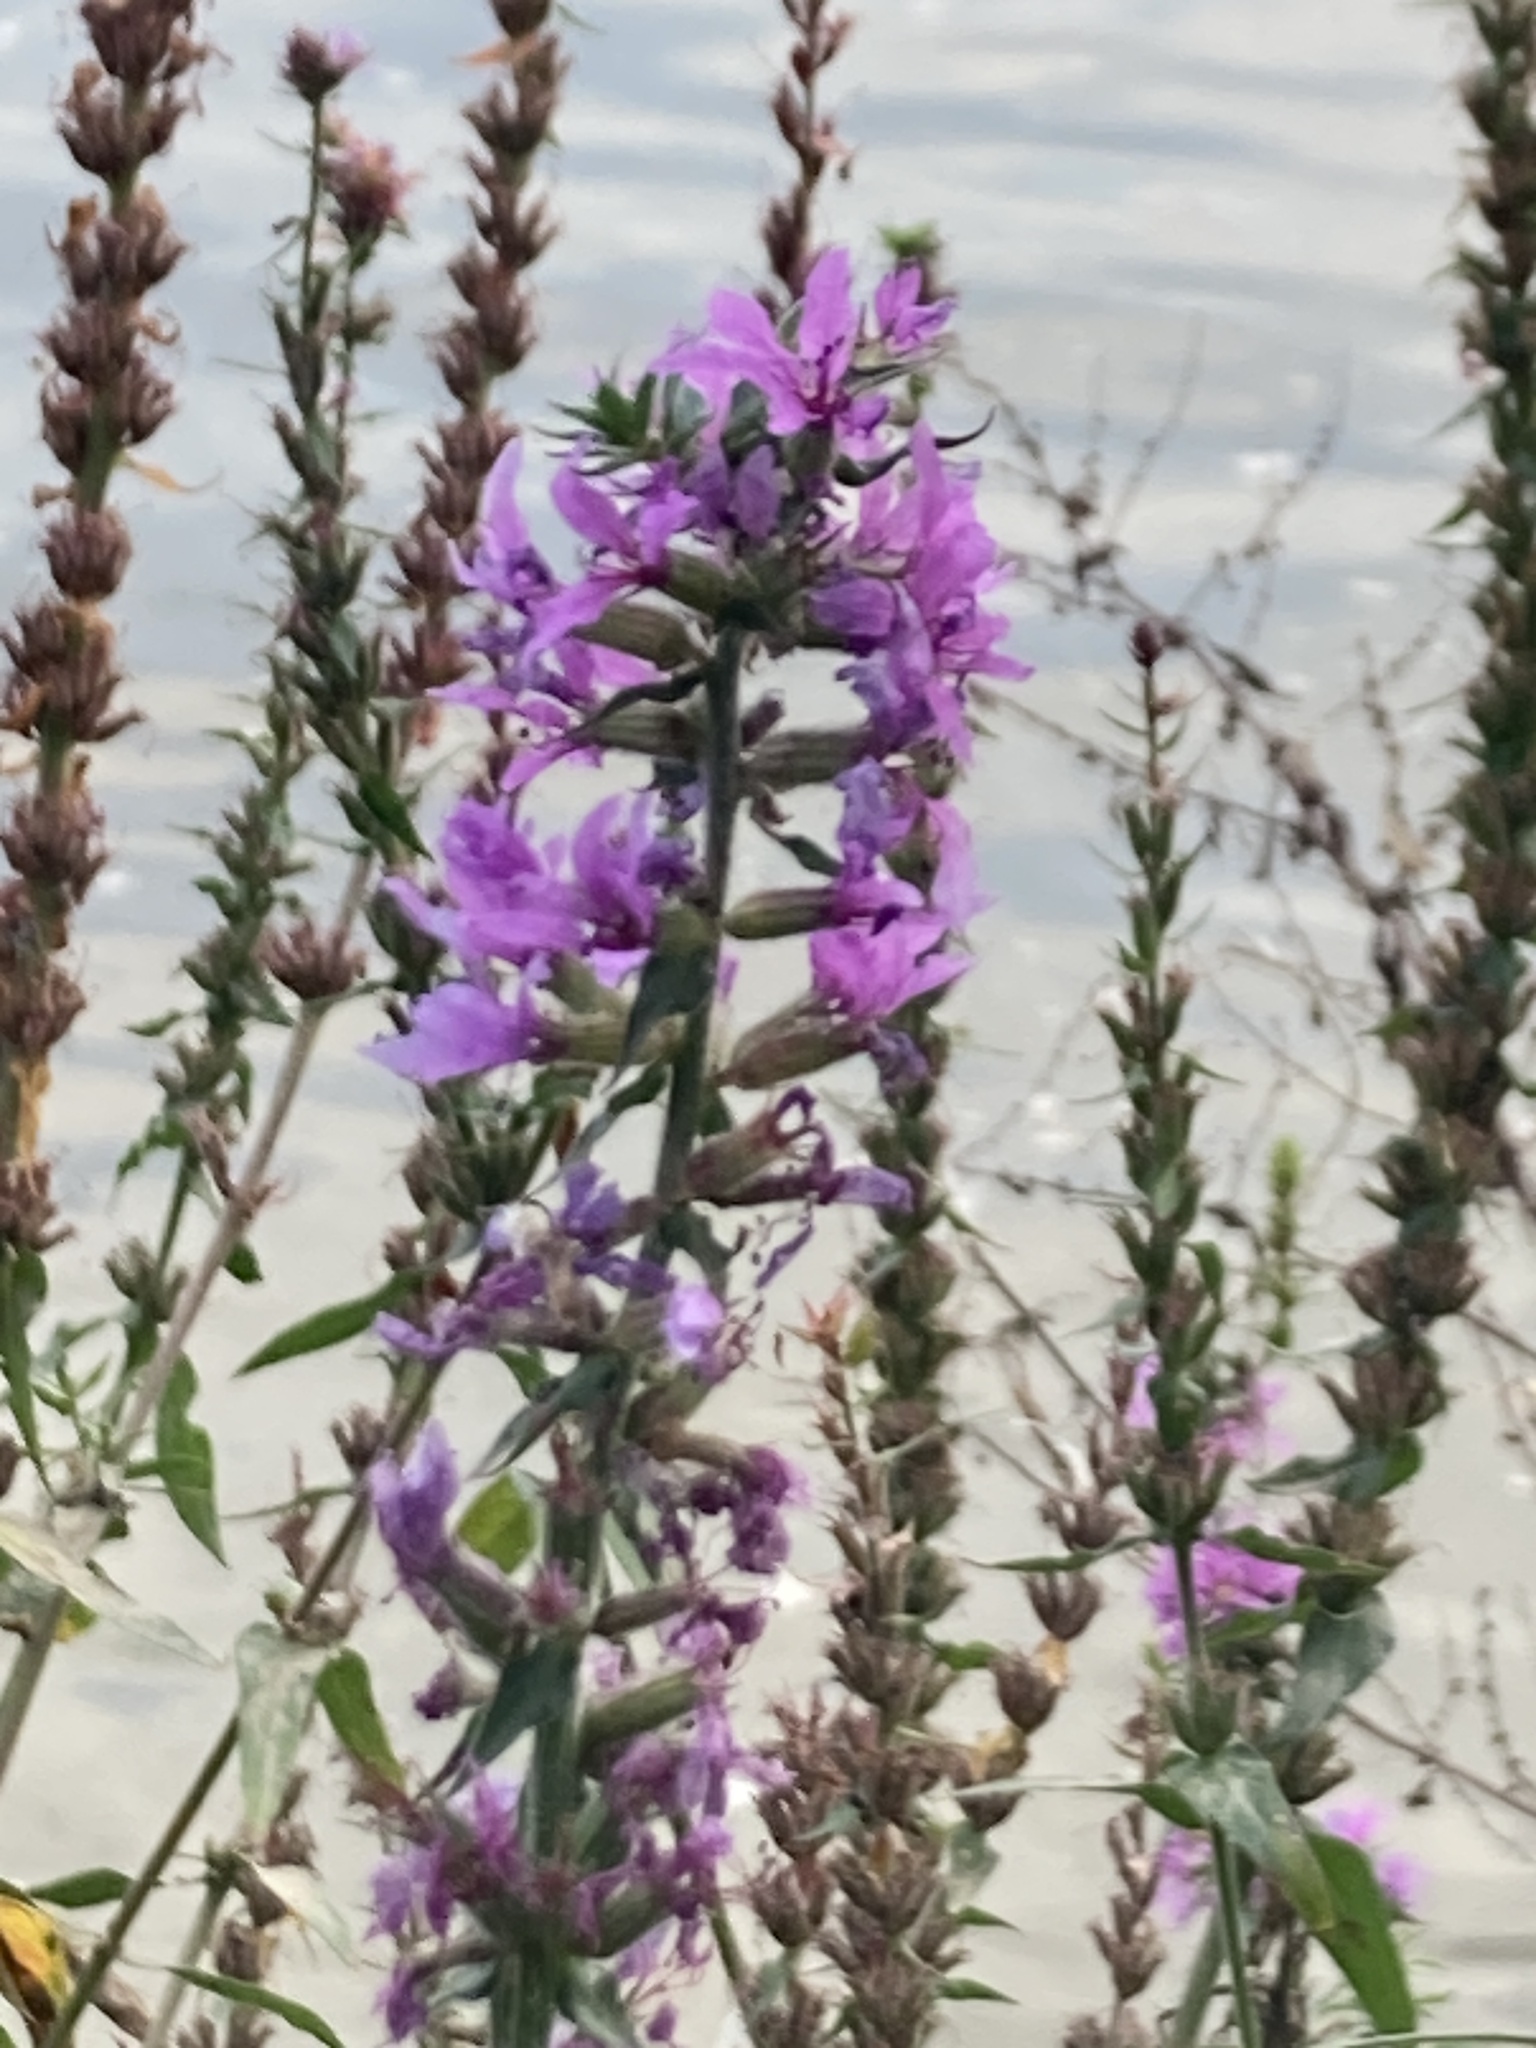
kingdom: Plantae
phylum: Tracheophyta
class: Magnoliopsida
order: Myrtales
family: Lythraceae
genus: Lythrum
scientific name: Lythrum salicaria
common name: Purple loosestrife
